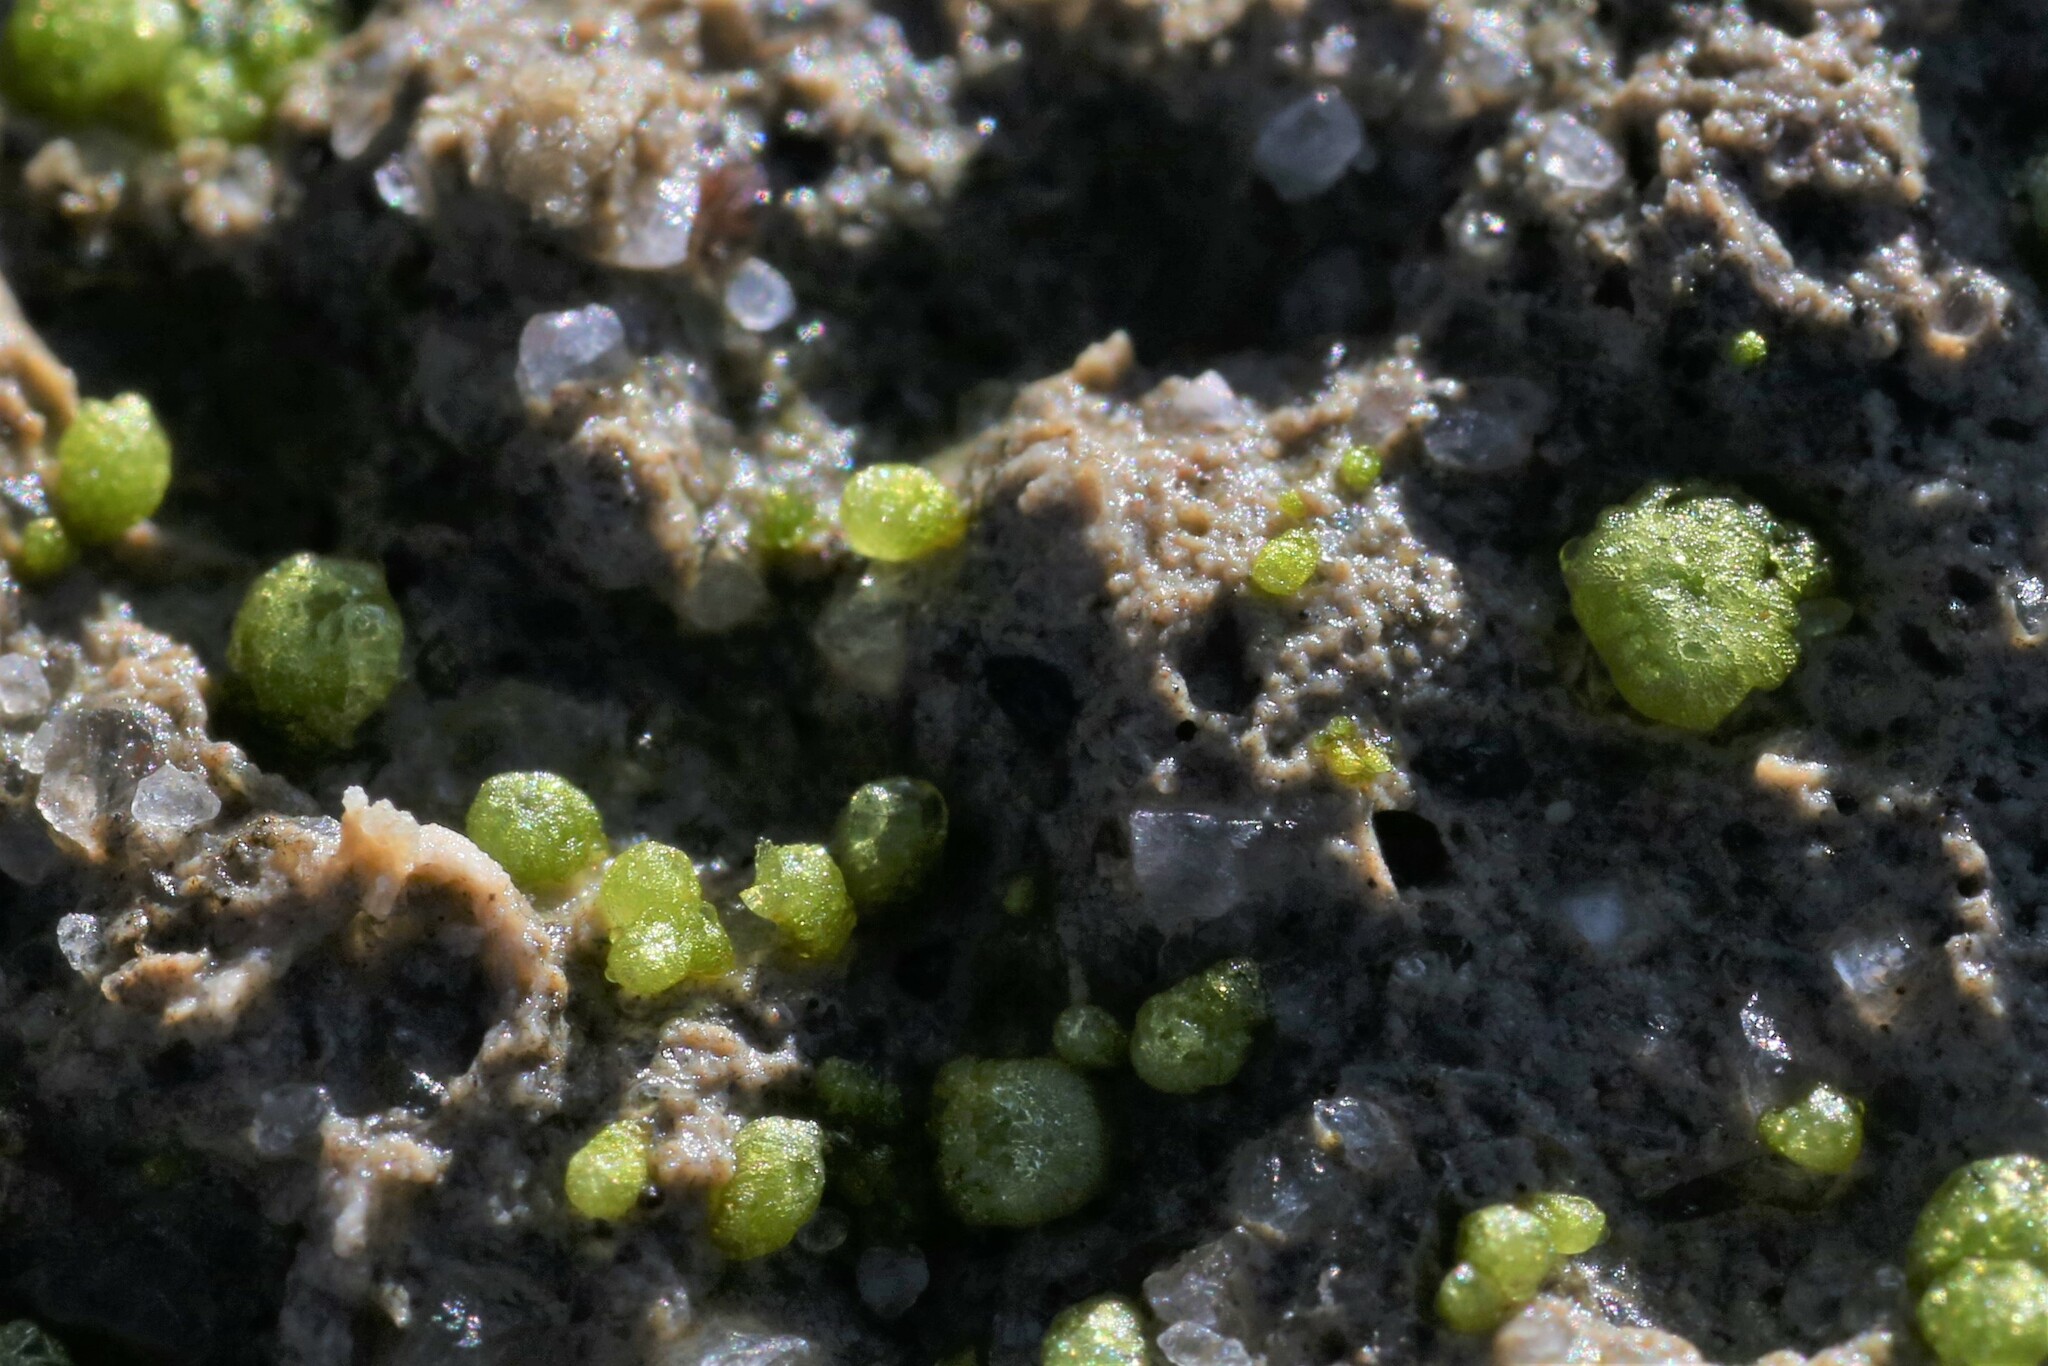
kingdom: Plantae
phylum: Marchantiophyta
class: Marchantiopsida
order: Sphaerocarpales
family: Monocarpaceae
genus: Monocarpus
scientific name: Monocarpus sphaerocarpus
